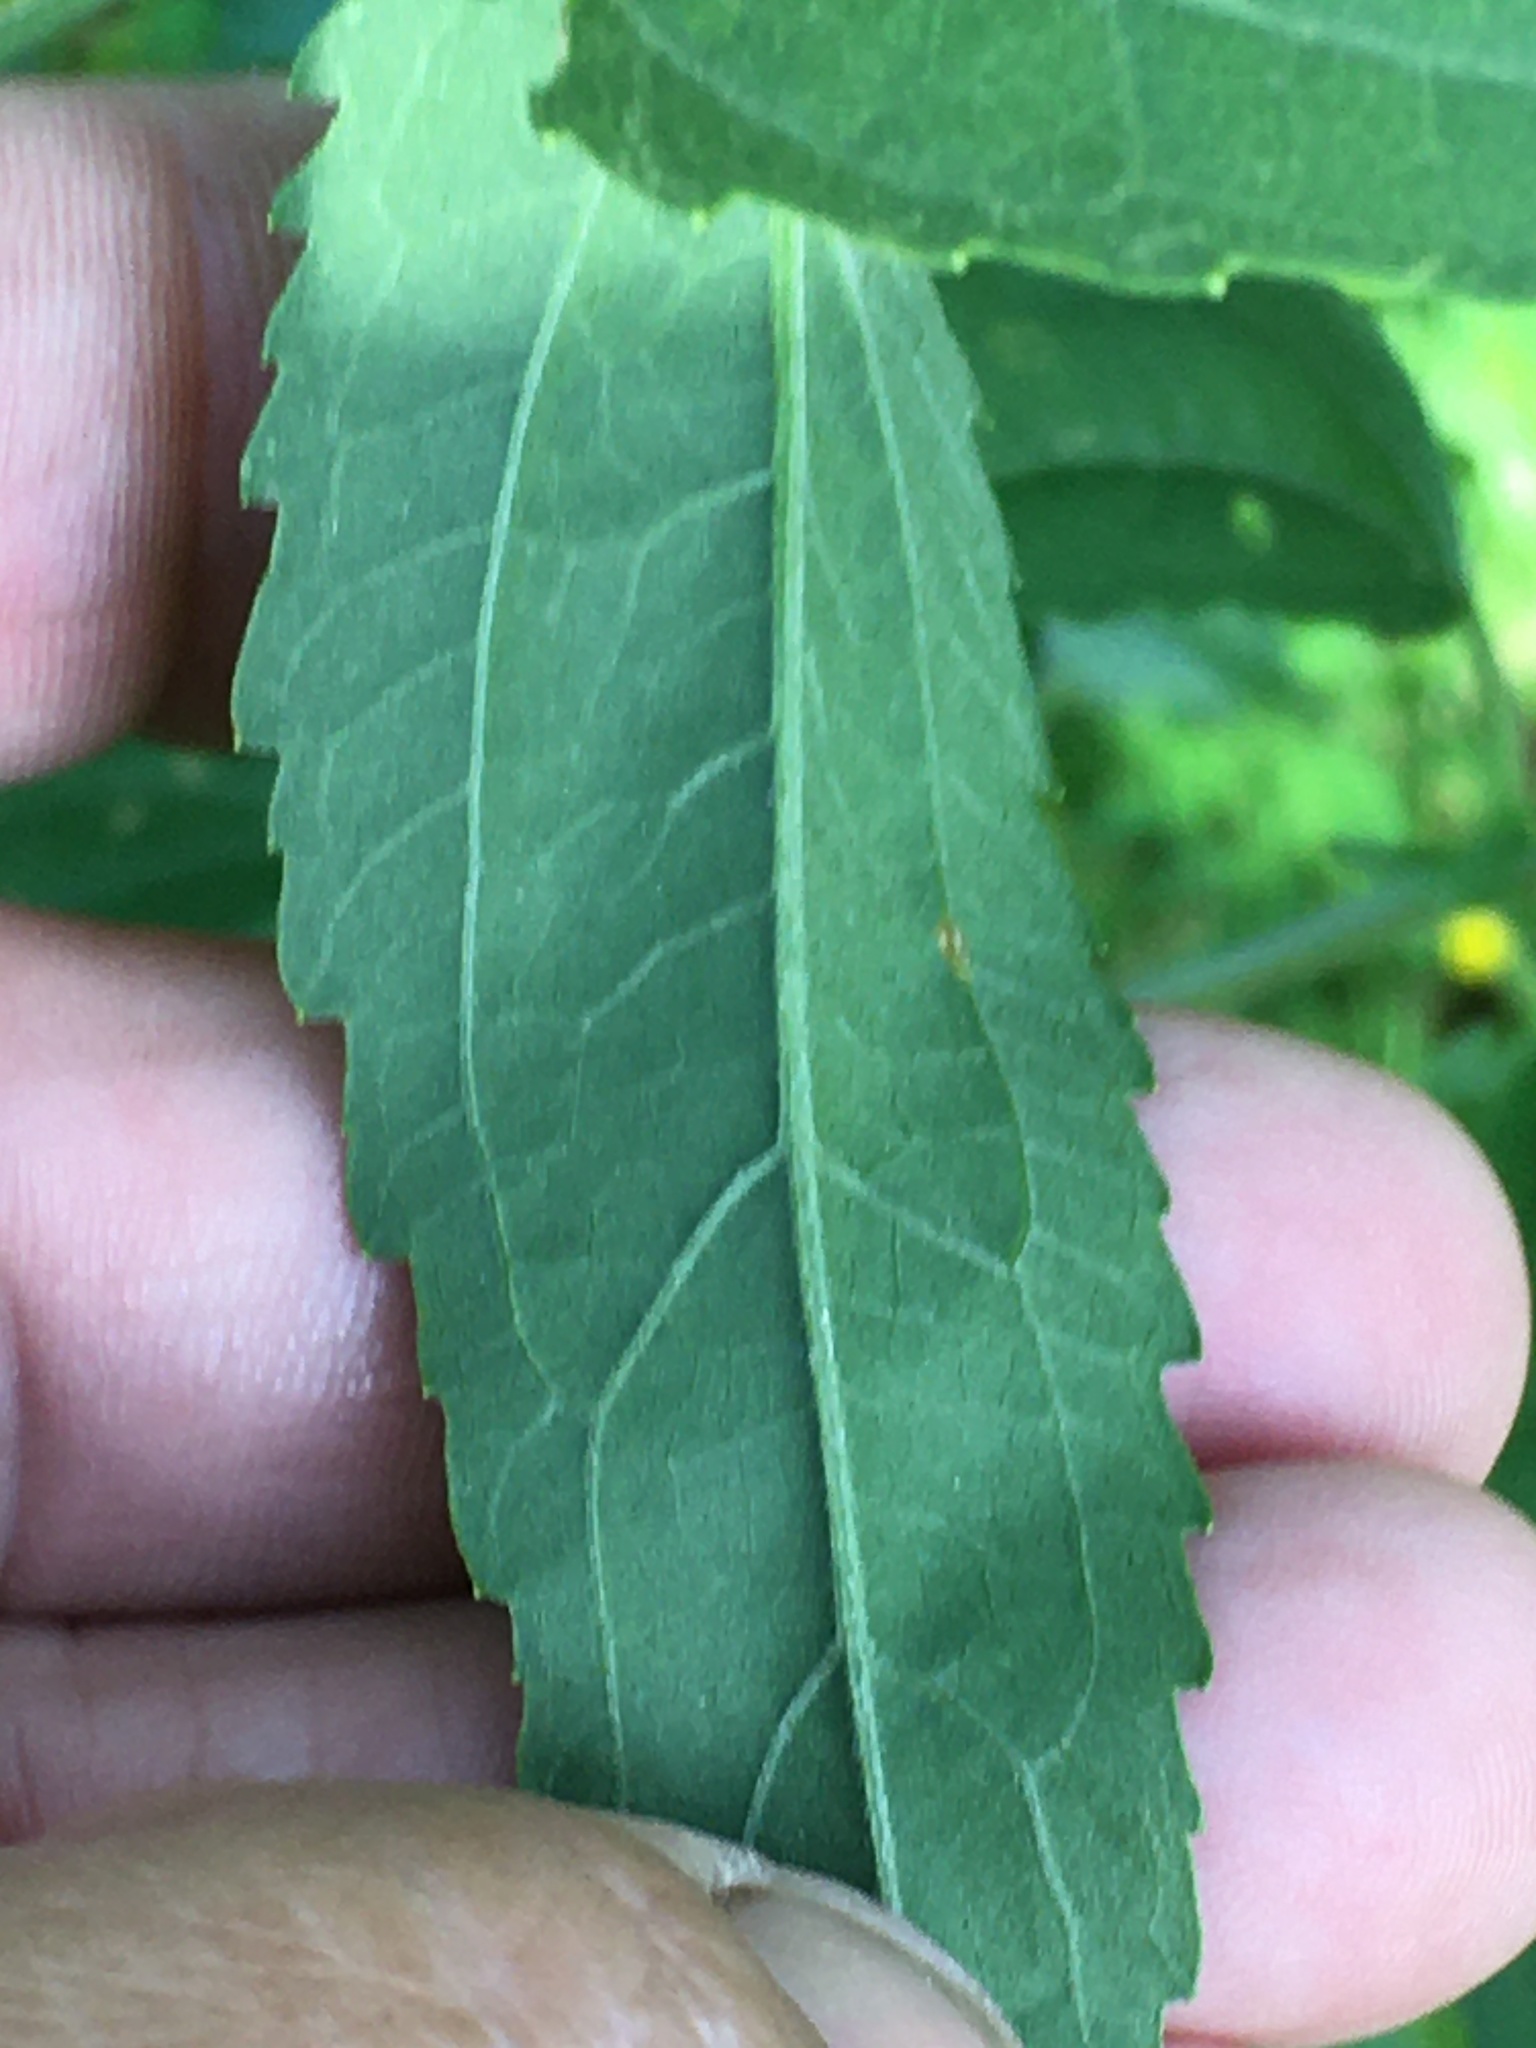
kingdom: Plantae
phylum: Tracheophyta
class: Magnoliopsida
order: Asterales
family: Asteraceae
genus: Eupatorium
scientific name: Eupatorium serotinum
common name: Late boneset
